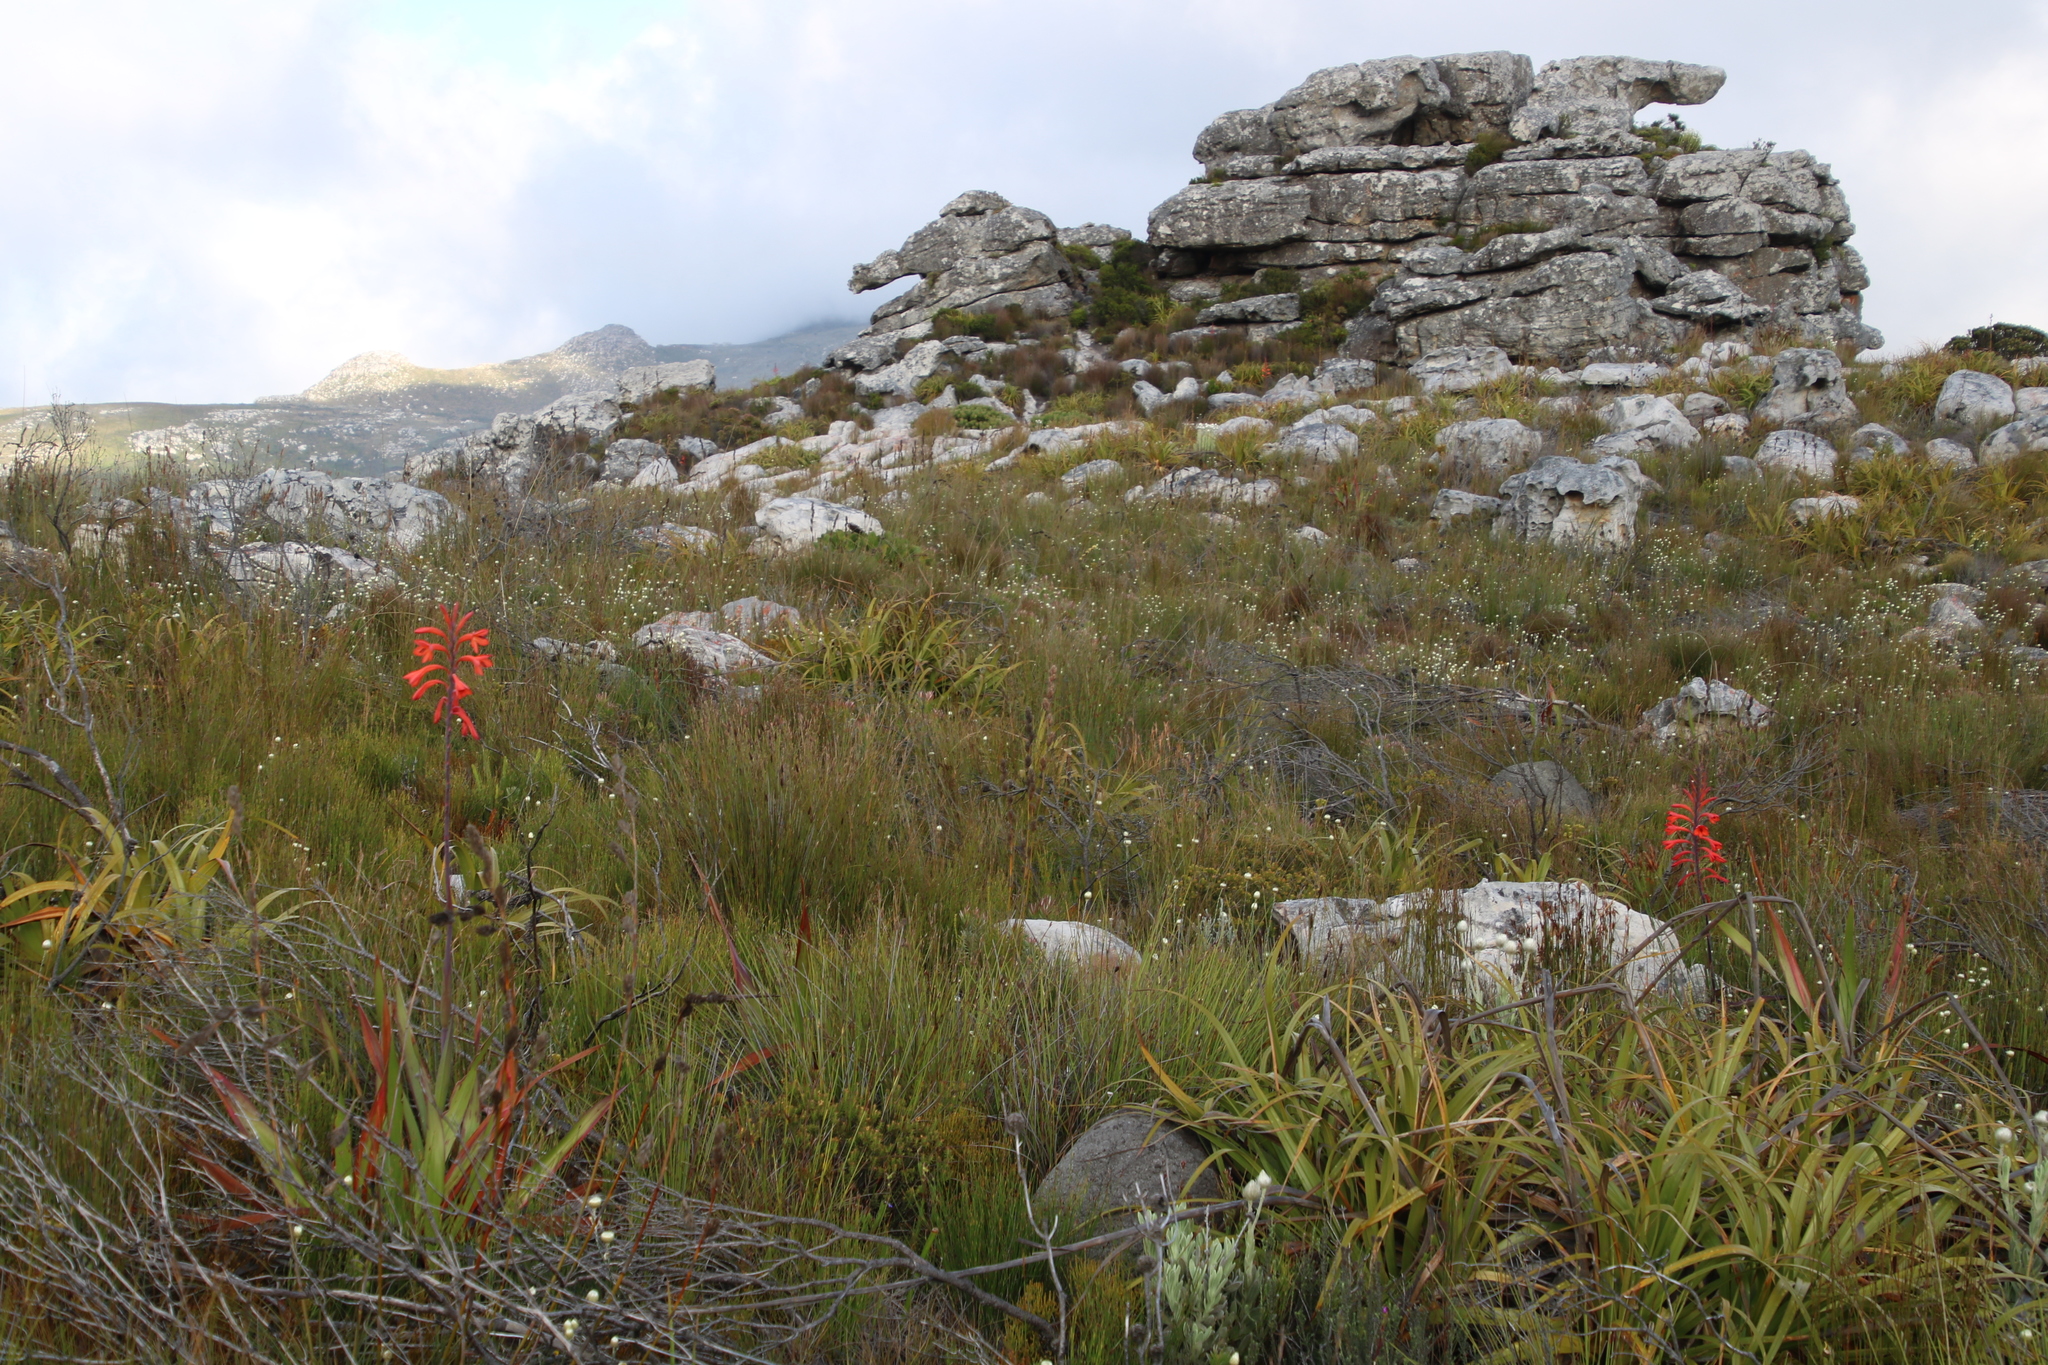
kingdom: Plantae
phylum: Tracheophyta
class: Liliopsida
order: Asparagales
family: Iridaceae
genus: Watsonia
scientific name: Watsonia tabularis
